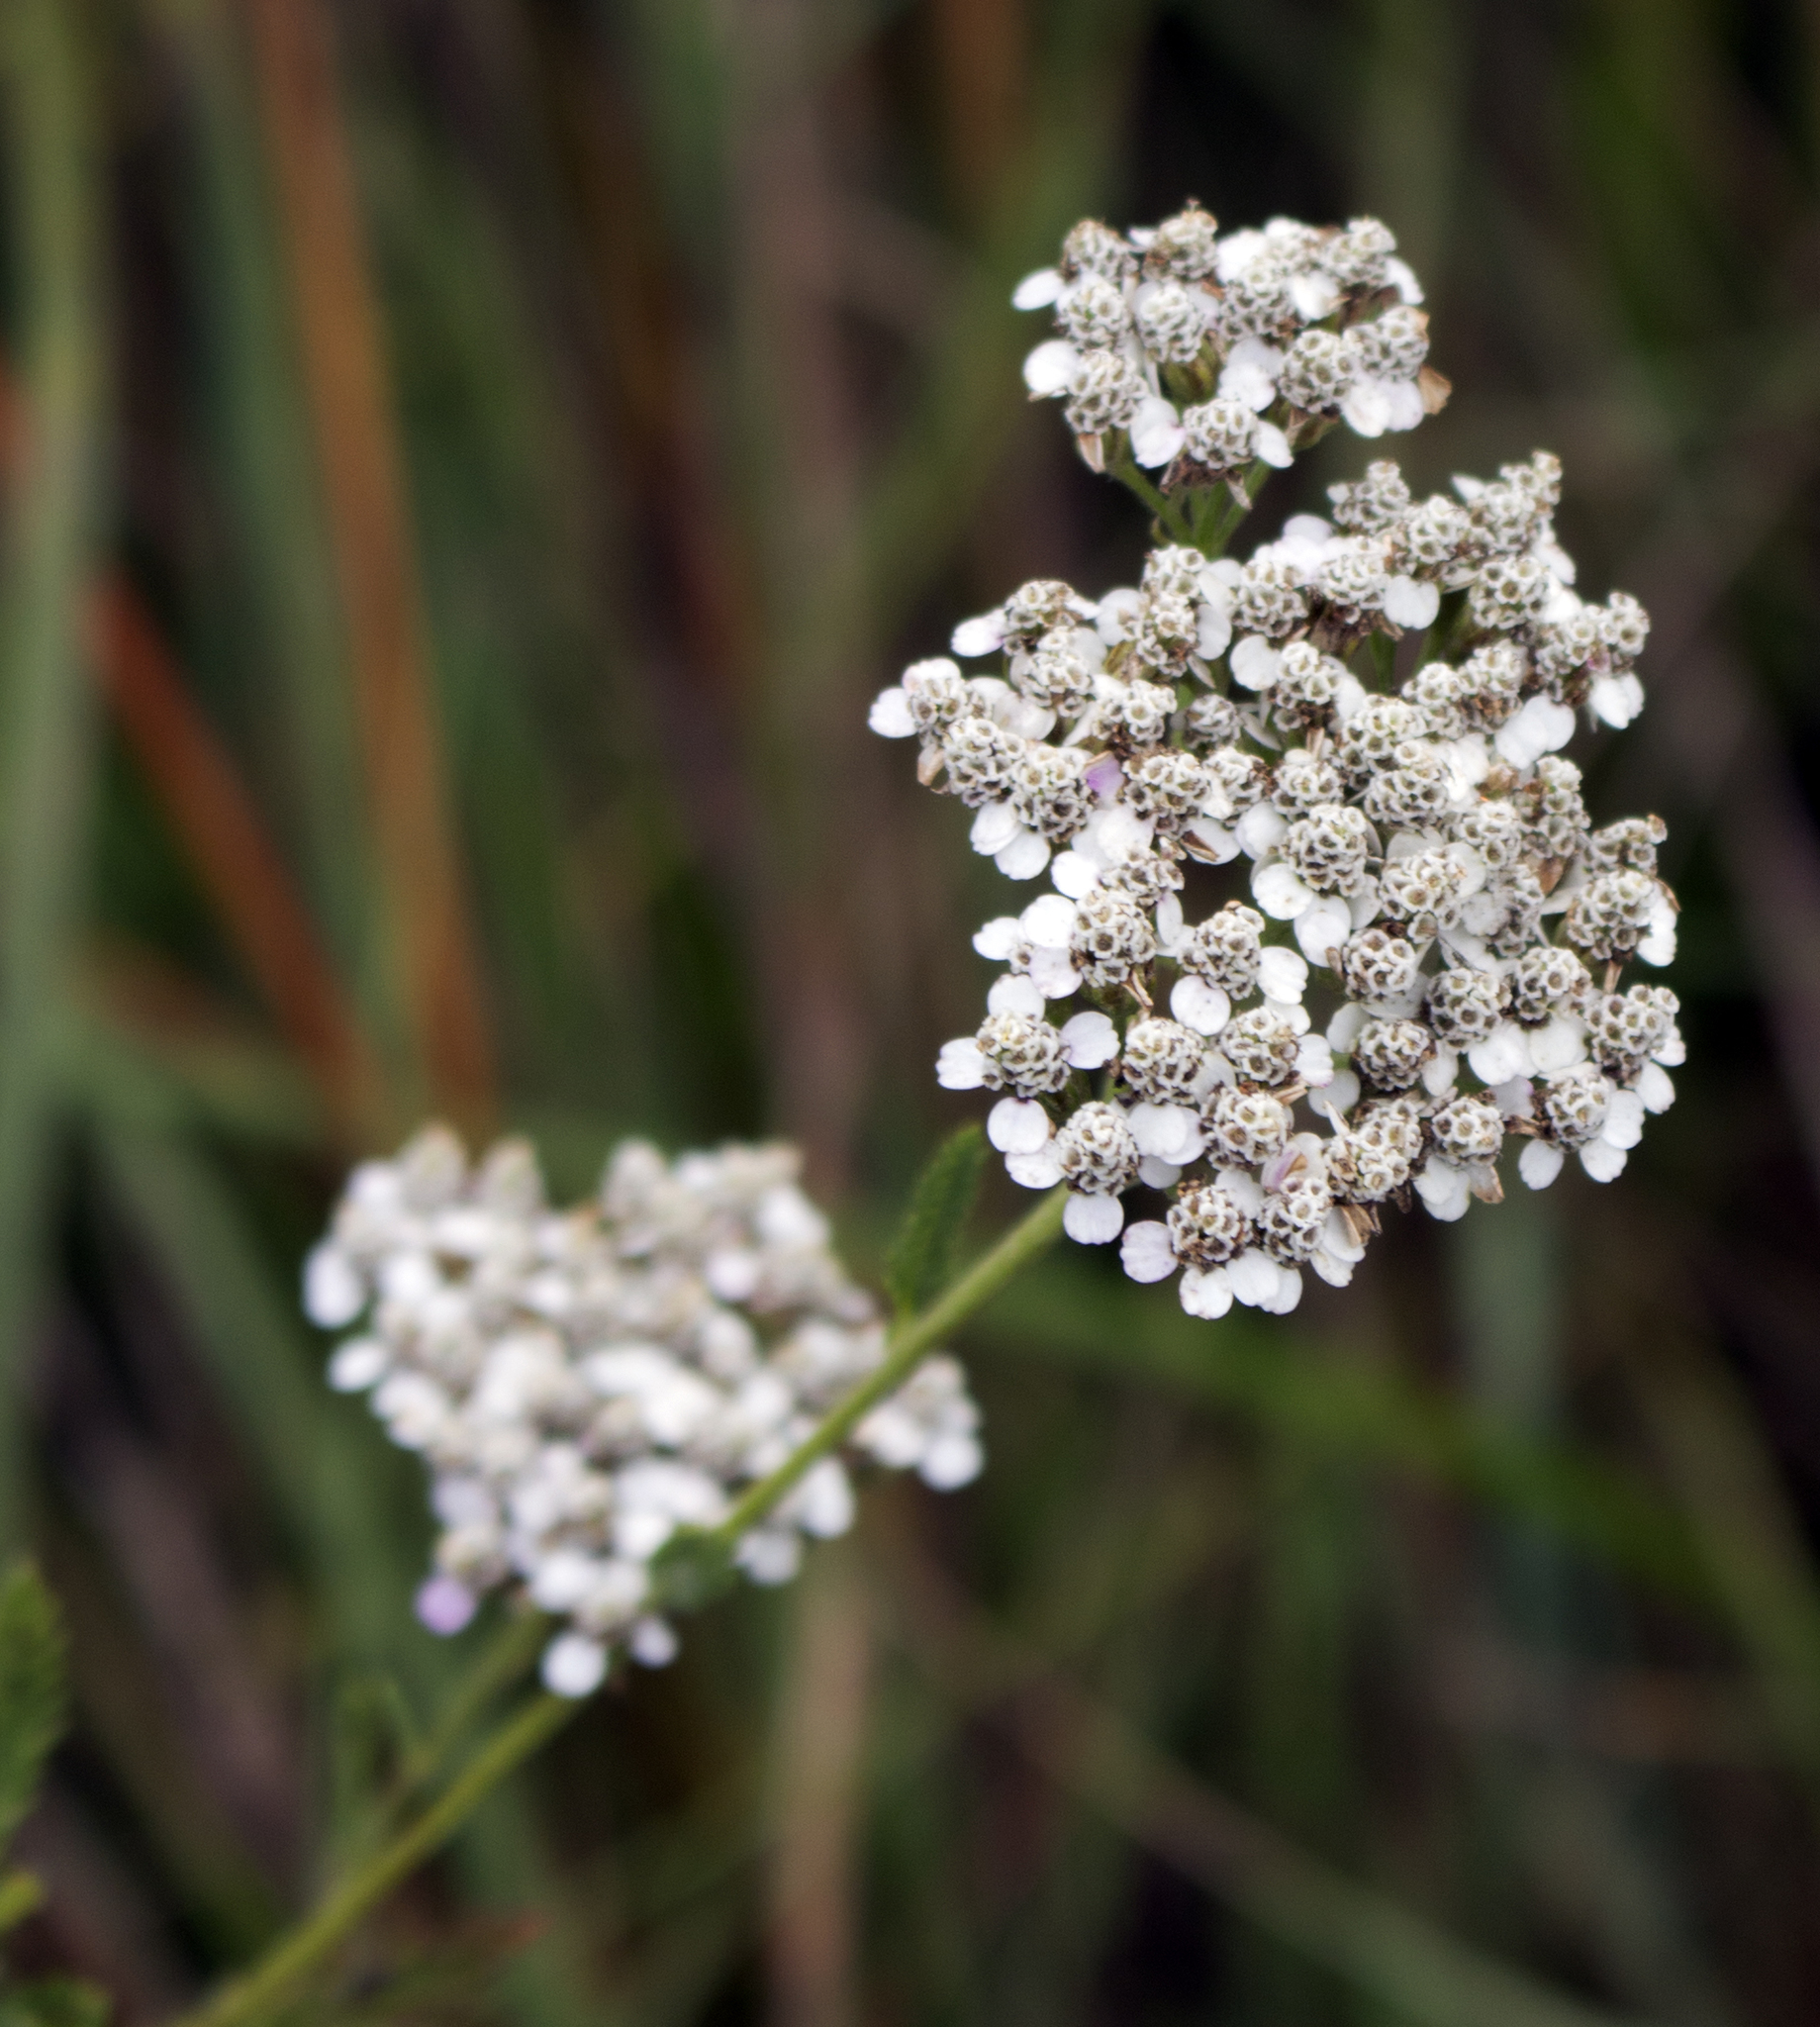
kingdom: Plantae
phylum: Tracheophyta
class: Magnoliopsida
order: Asterales
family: Asteraceae
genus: Achillea
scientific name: Achillea millefolium
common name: Yarrow
